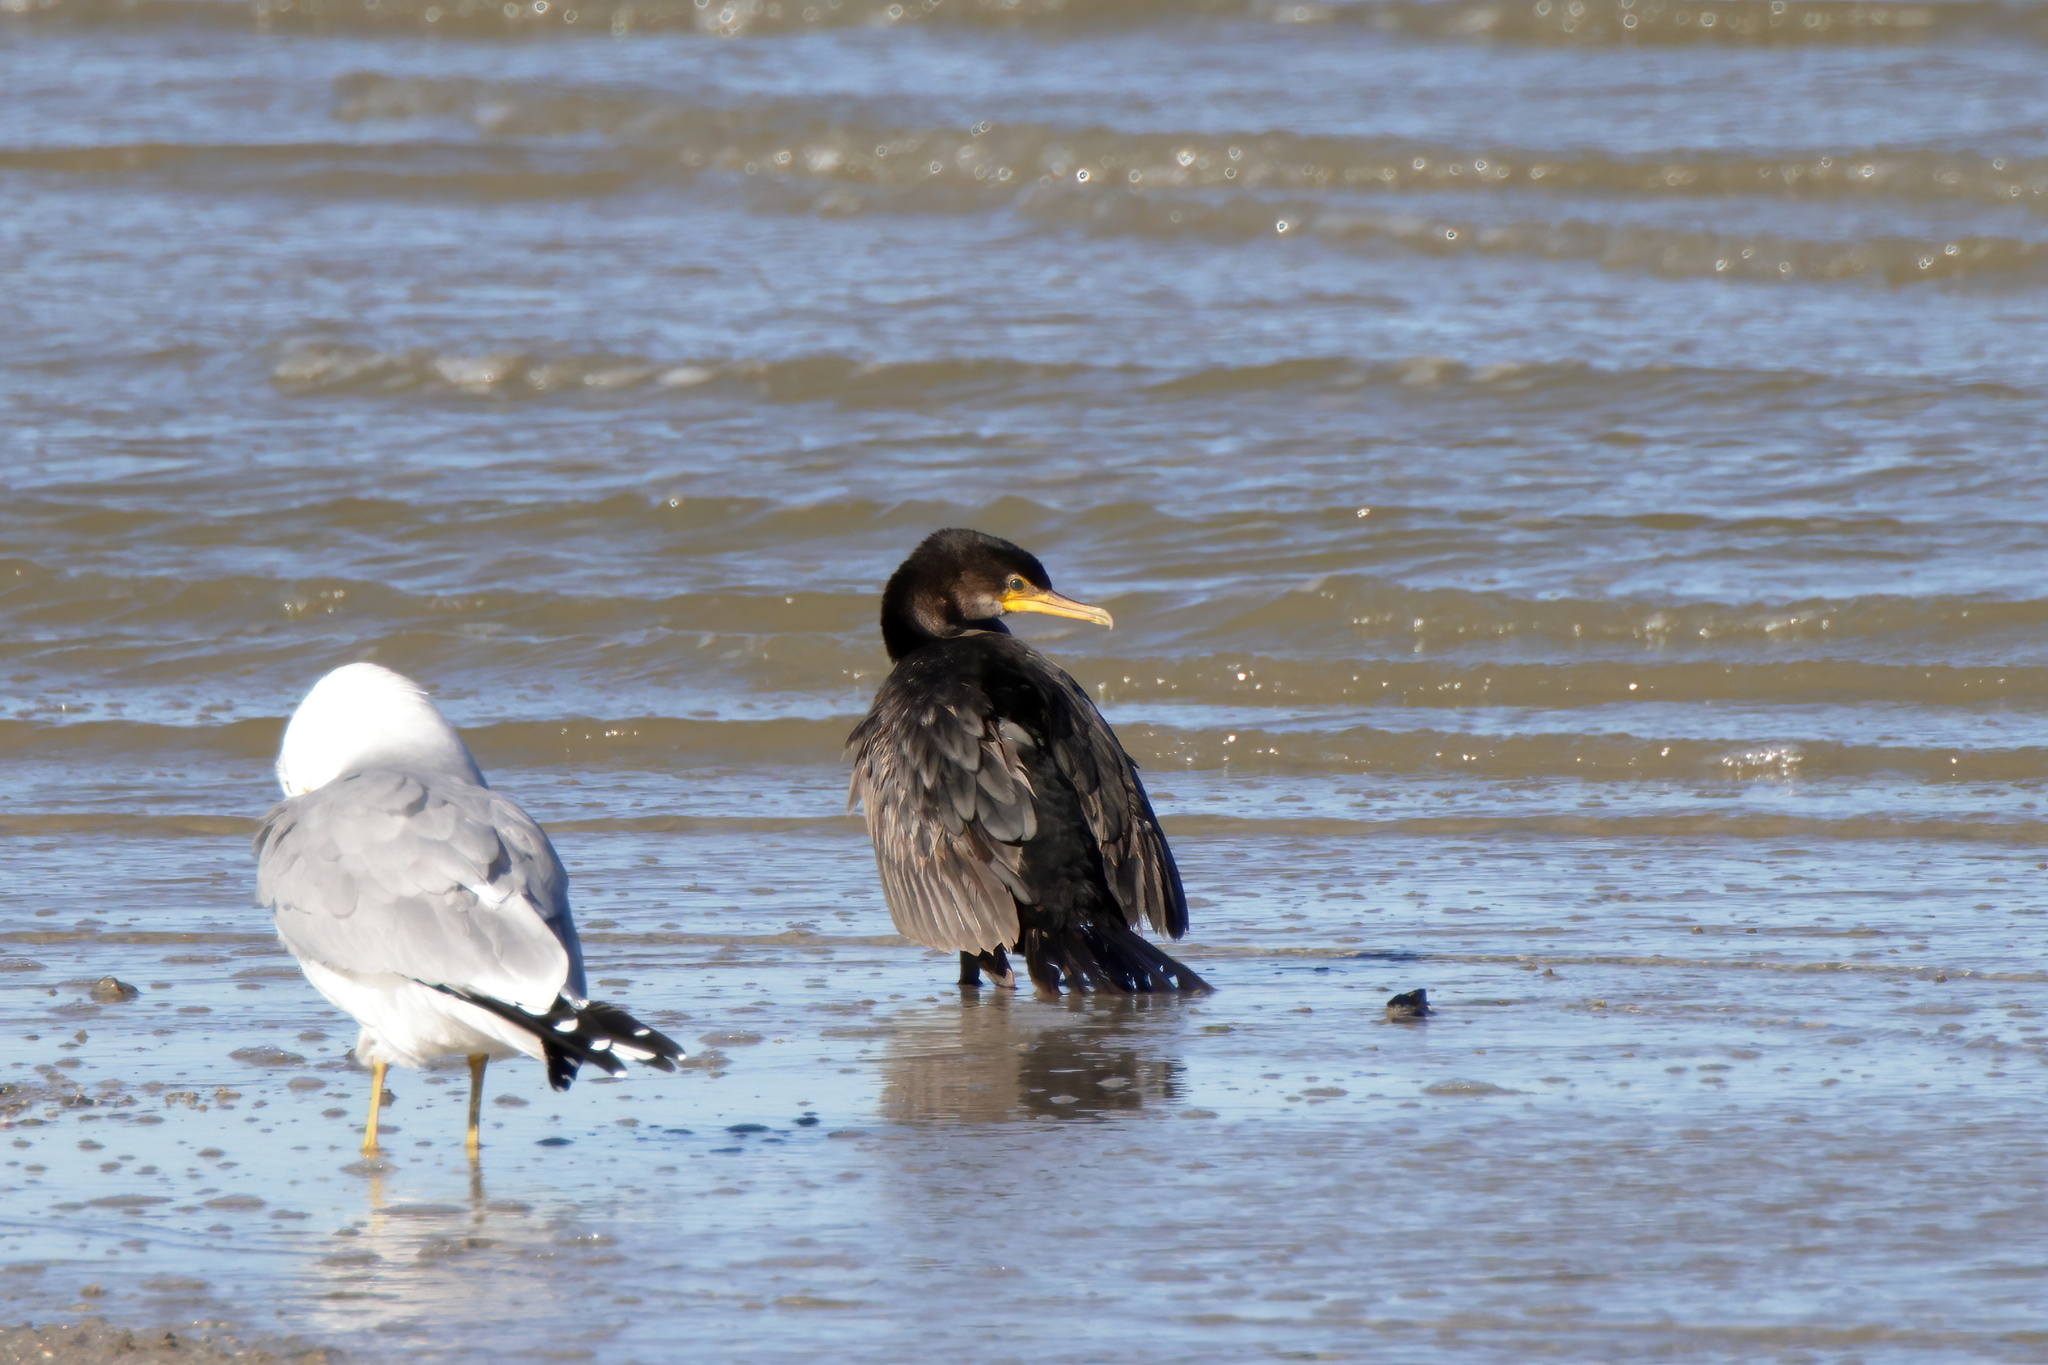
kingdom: Animalia
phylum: Chordata
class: Aves
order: Suliformes
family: Phalacrocoracidae
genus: Phalacrocorax
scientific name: Phalacrocorax auritus
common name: Double-crested cormorant
